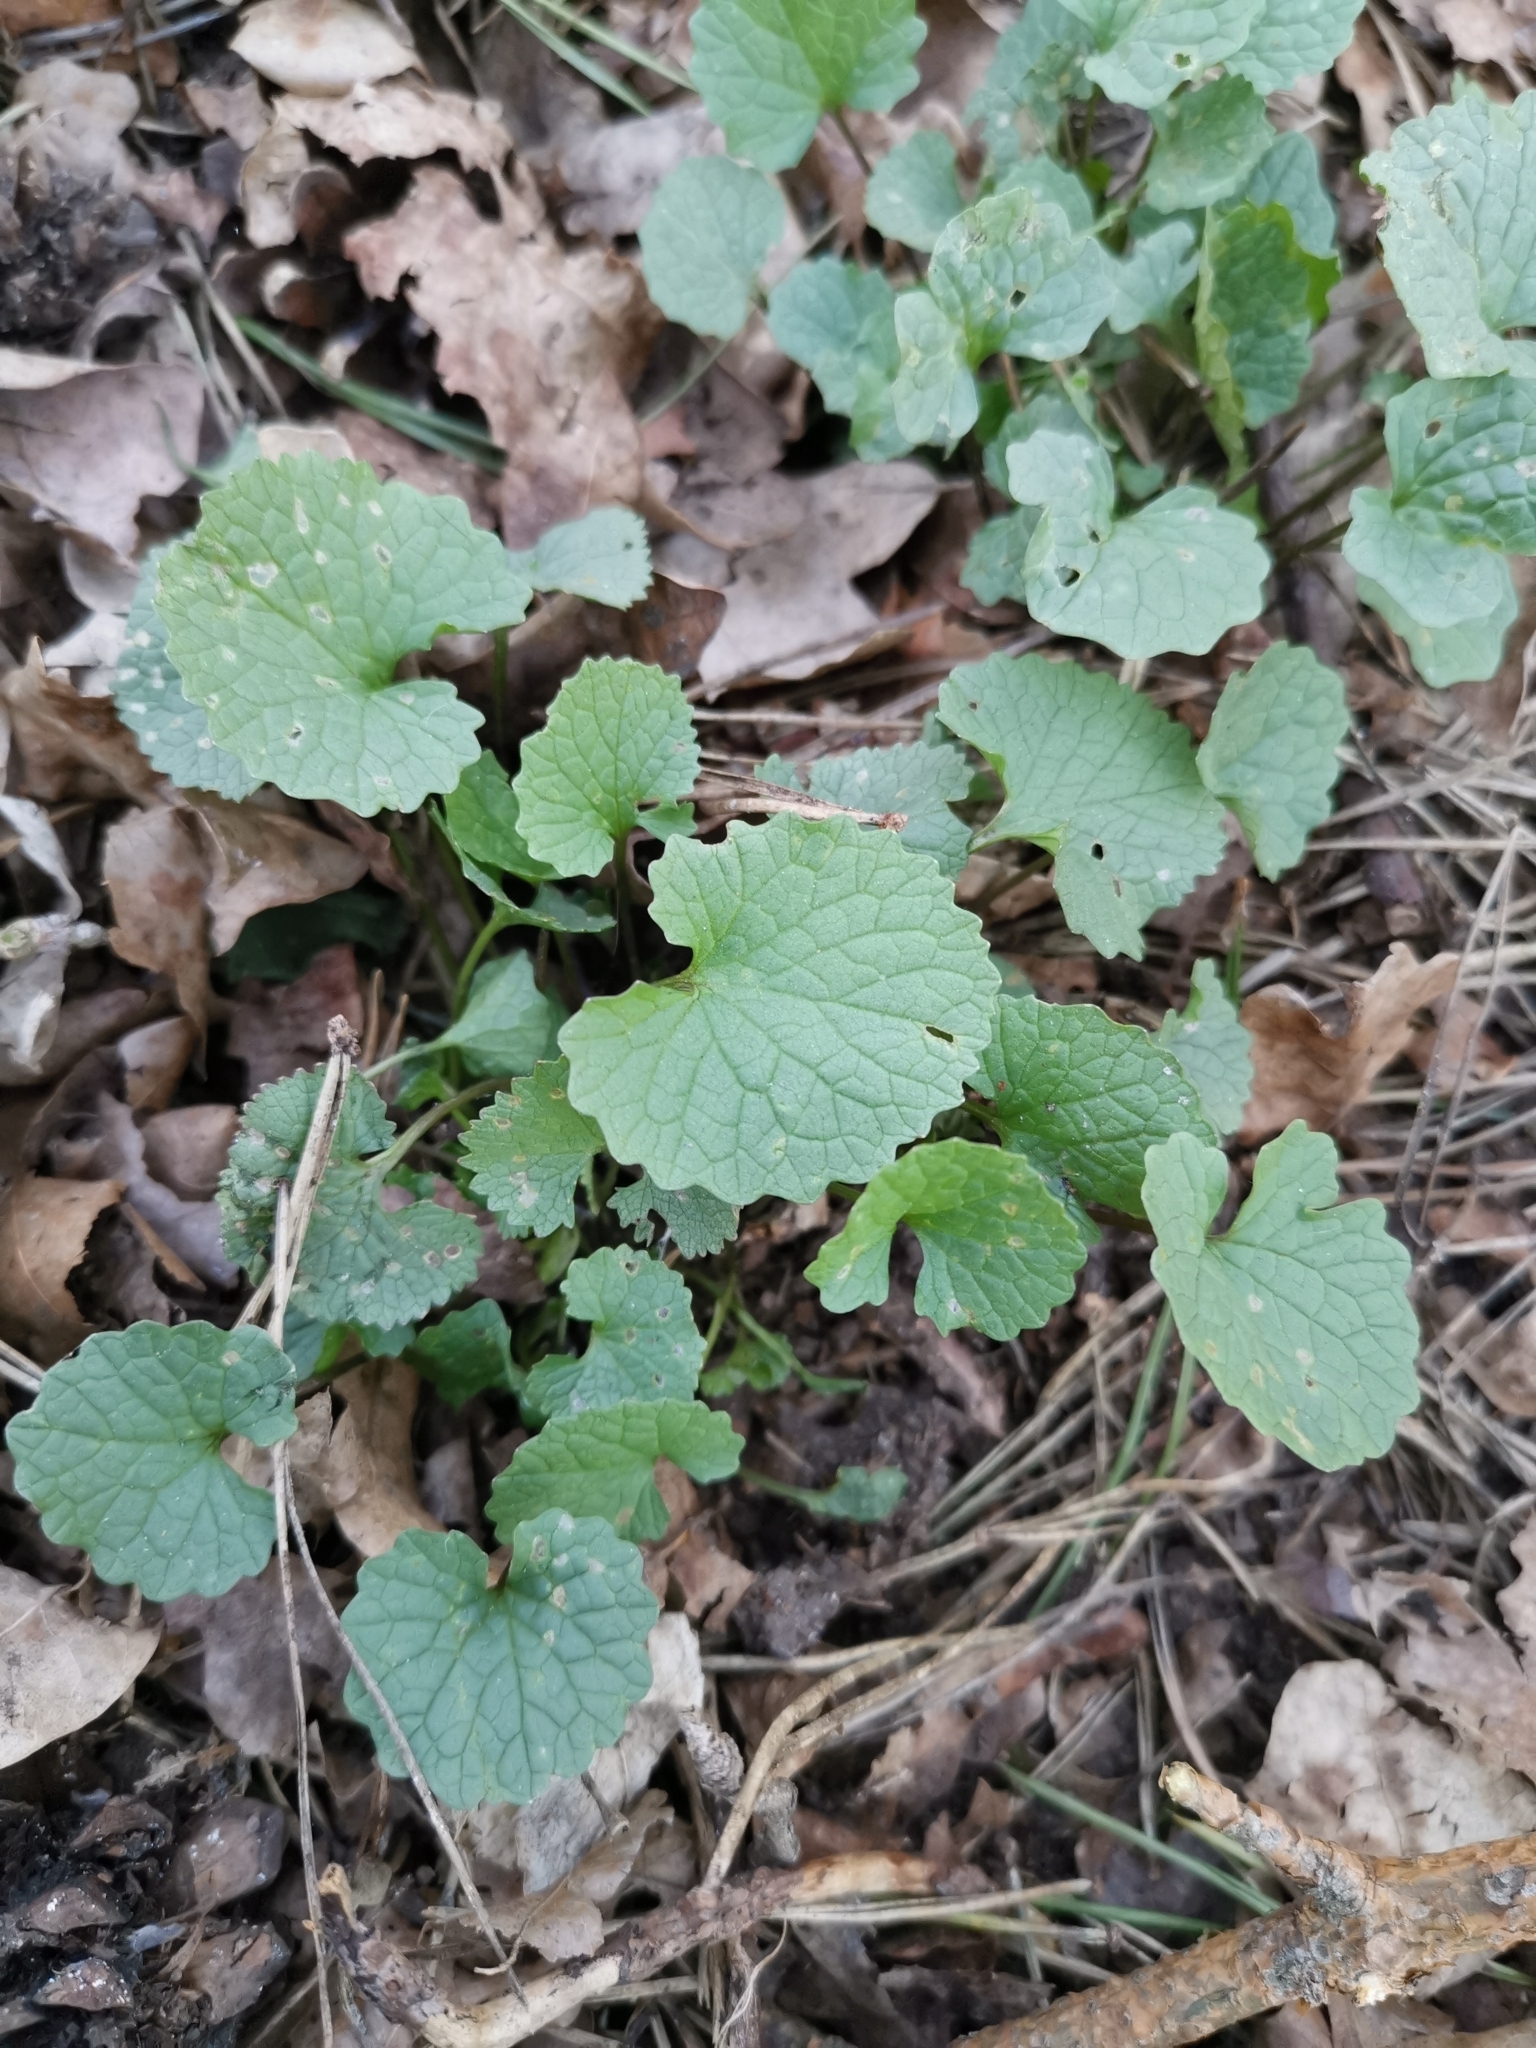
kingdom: Plantae
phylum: Tracheophyta
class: Magnoliopsida
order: Brassicales
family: Brassicaceae
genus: Alliaria
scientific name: Alliaria petiolata
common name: Garlic mustard
